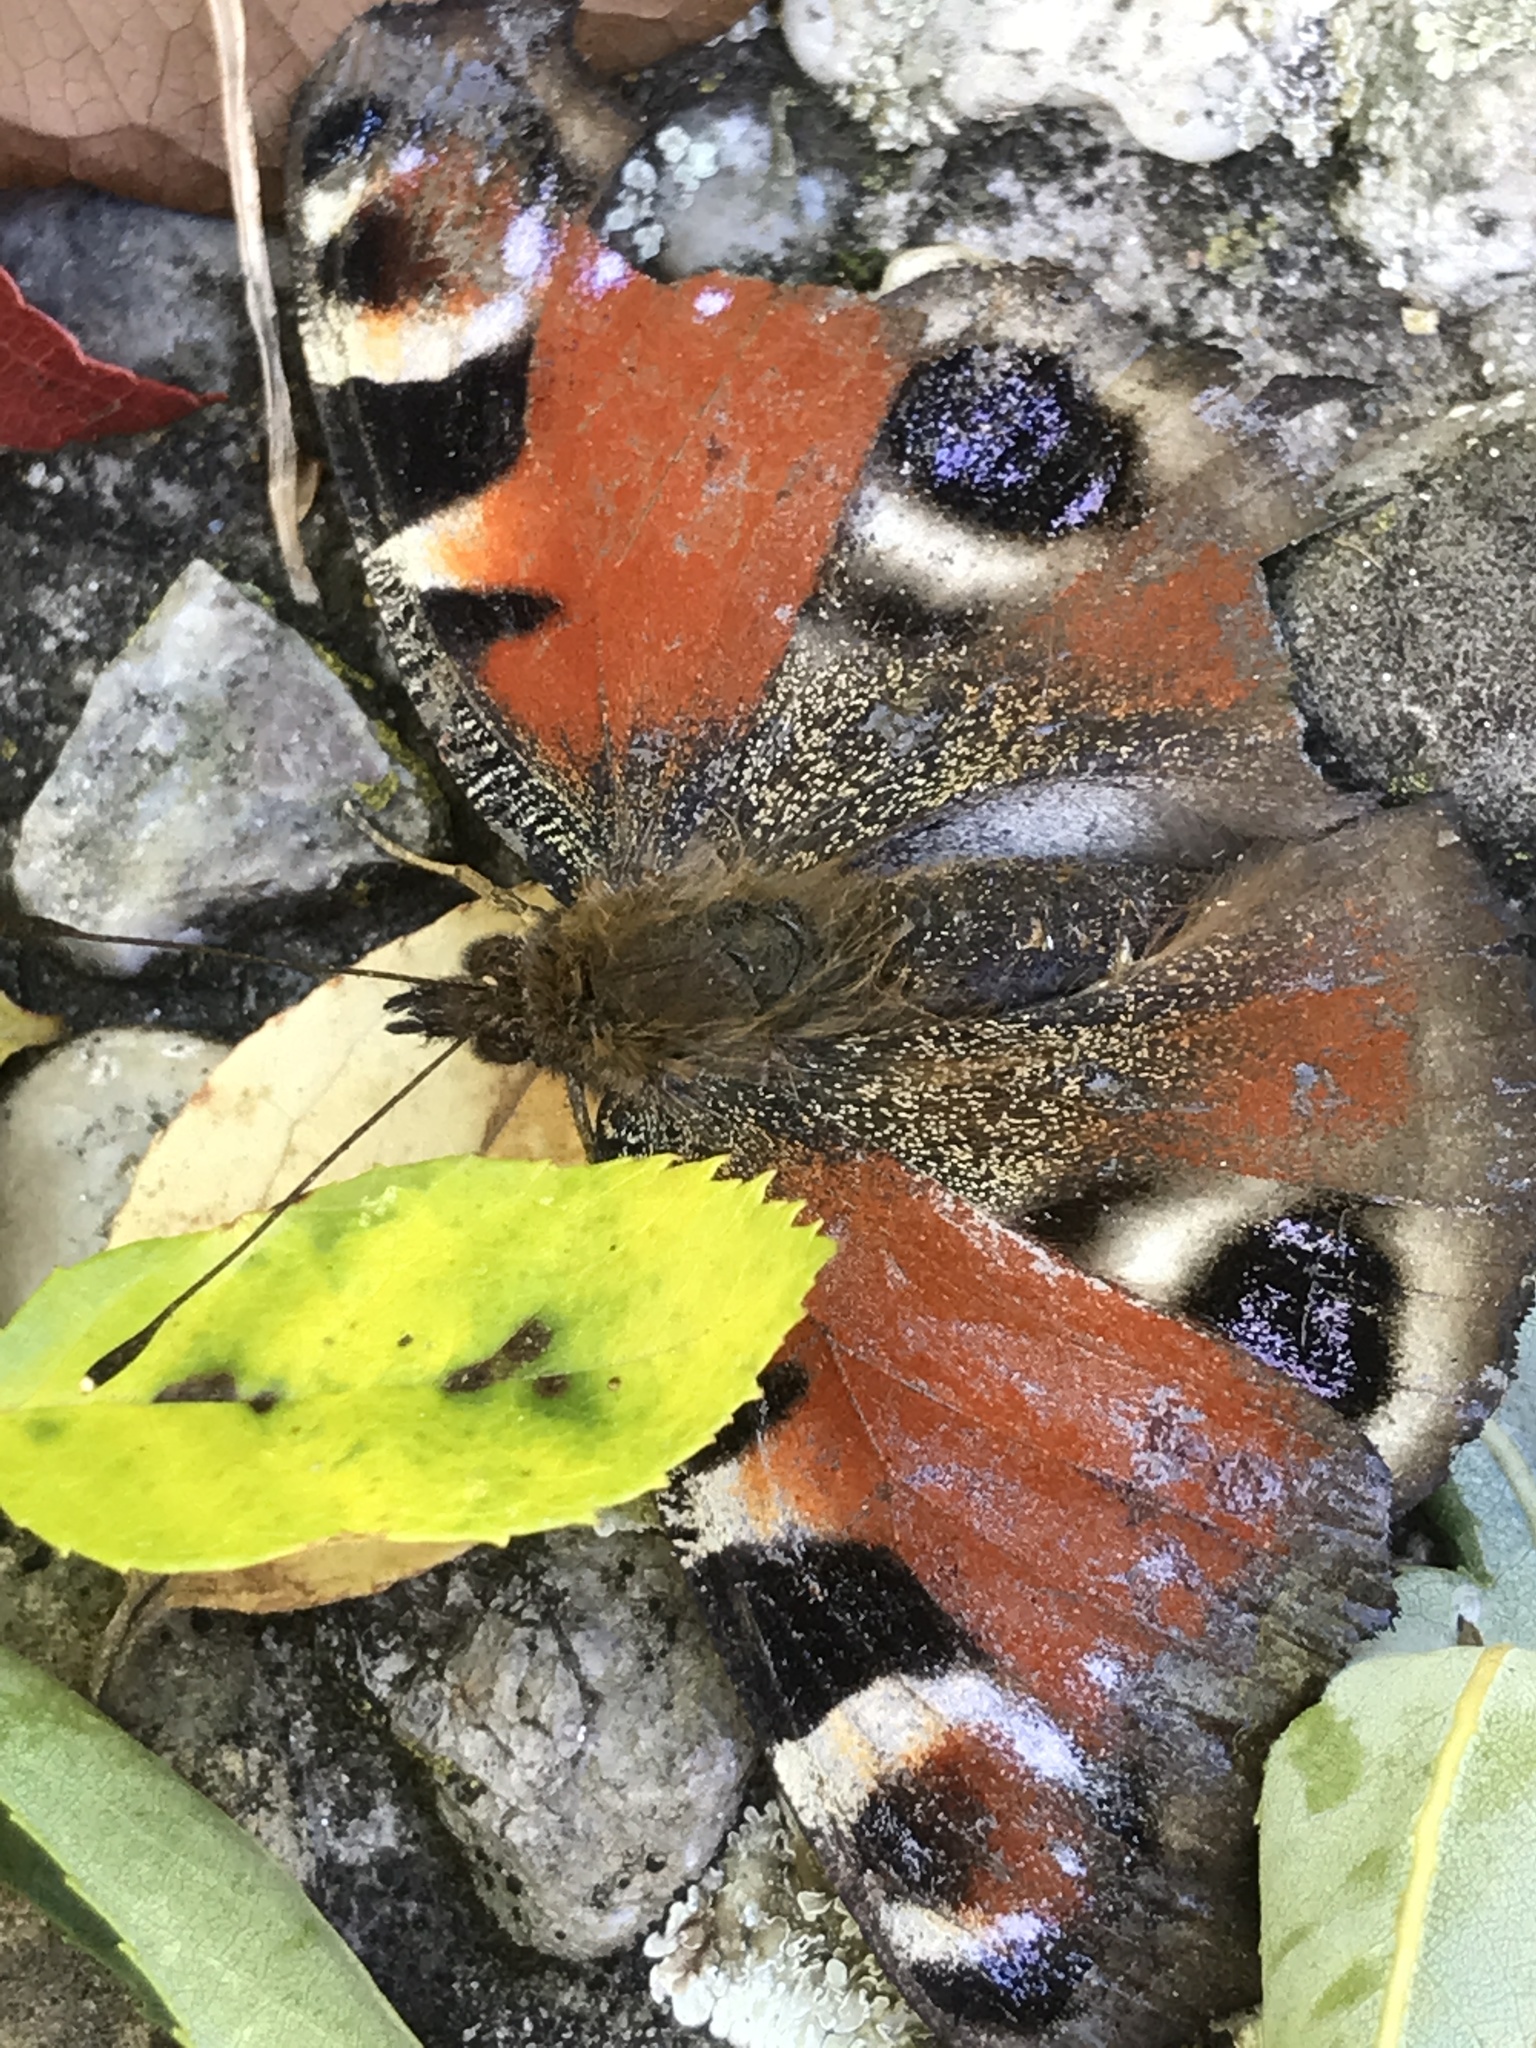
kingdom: Animalia
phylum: Arthropoda
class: Insecta
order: Lepidoptera
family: Nymphalidae
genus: Aglais
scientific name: Aglais io
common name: Peacock
